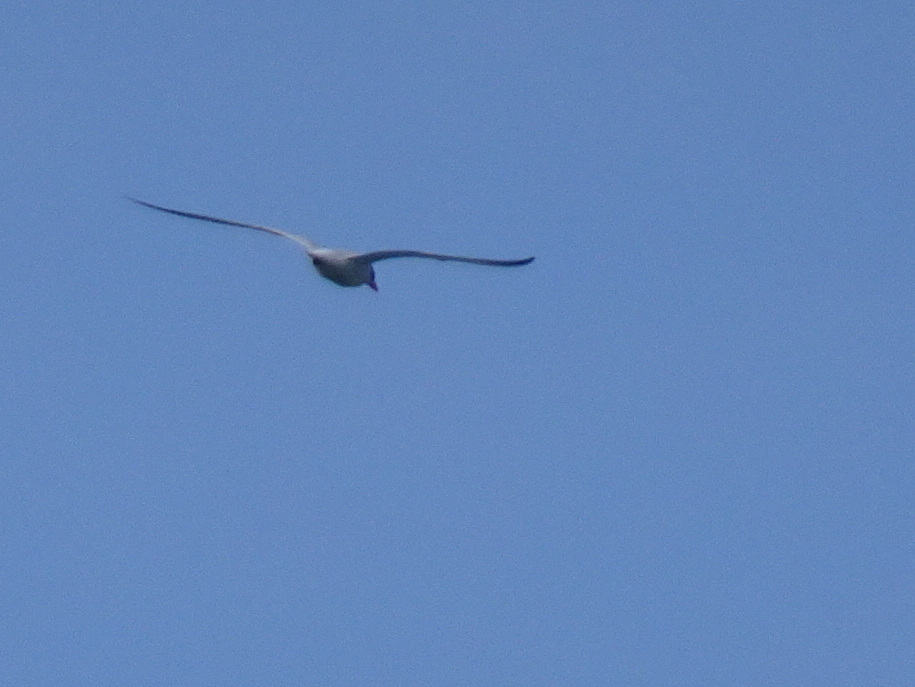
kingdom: Animalia
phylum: Chordata
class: Aves
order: Charadriiformes
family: Laridae
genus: Hydroprogne
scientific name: Hydroprogne caspia
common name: Caspian tern
